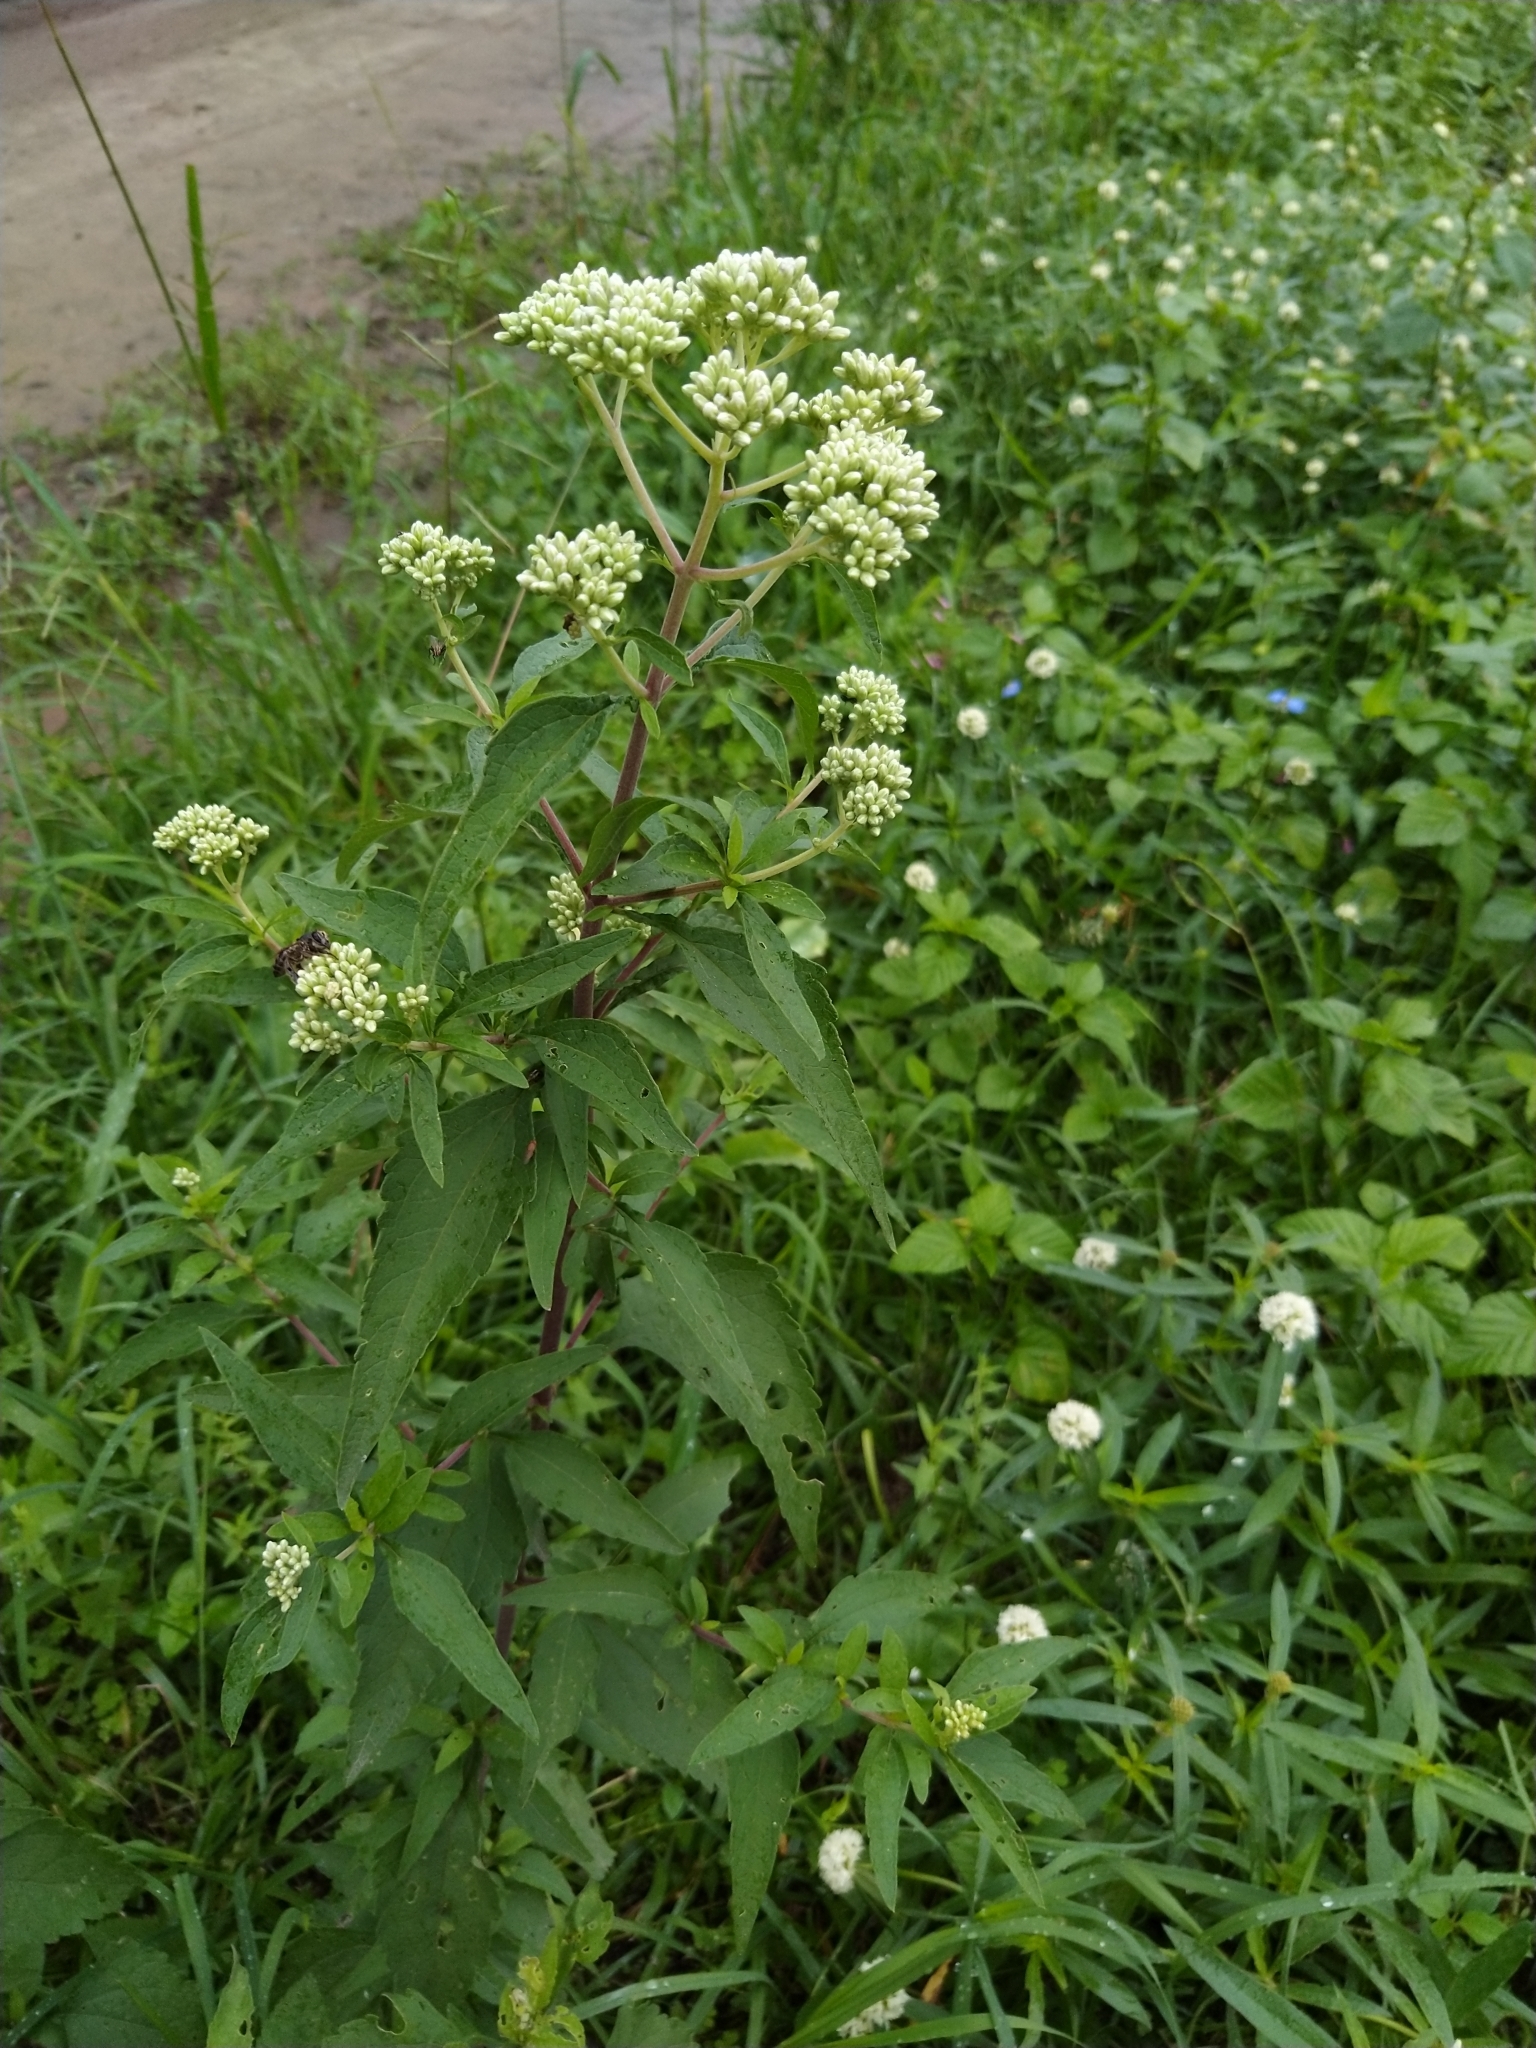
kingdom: Plantae
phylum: Tracheophyta
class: Magnoliopsida
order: Asterales
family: Asteraceae
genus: Austroeupatorium
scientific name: Austroeupatorium inulifolium
